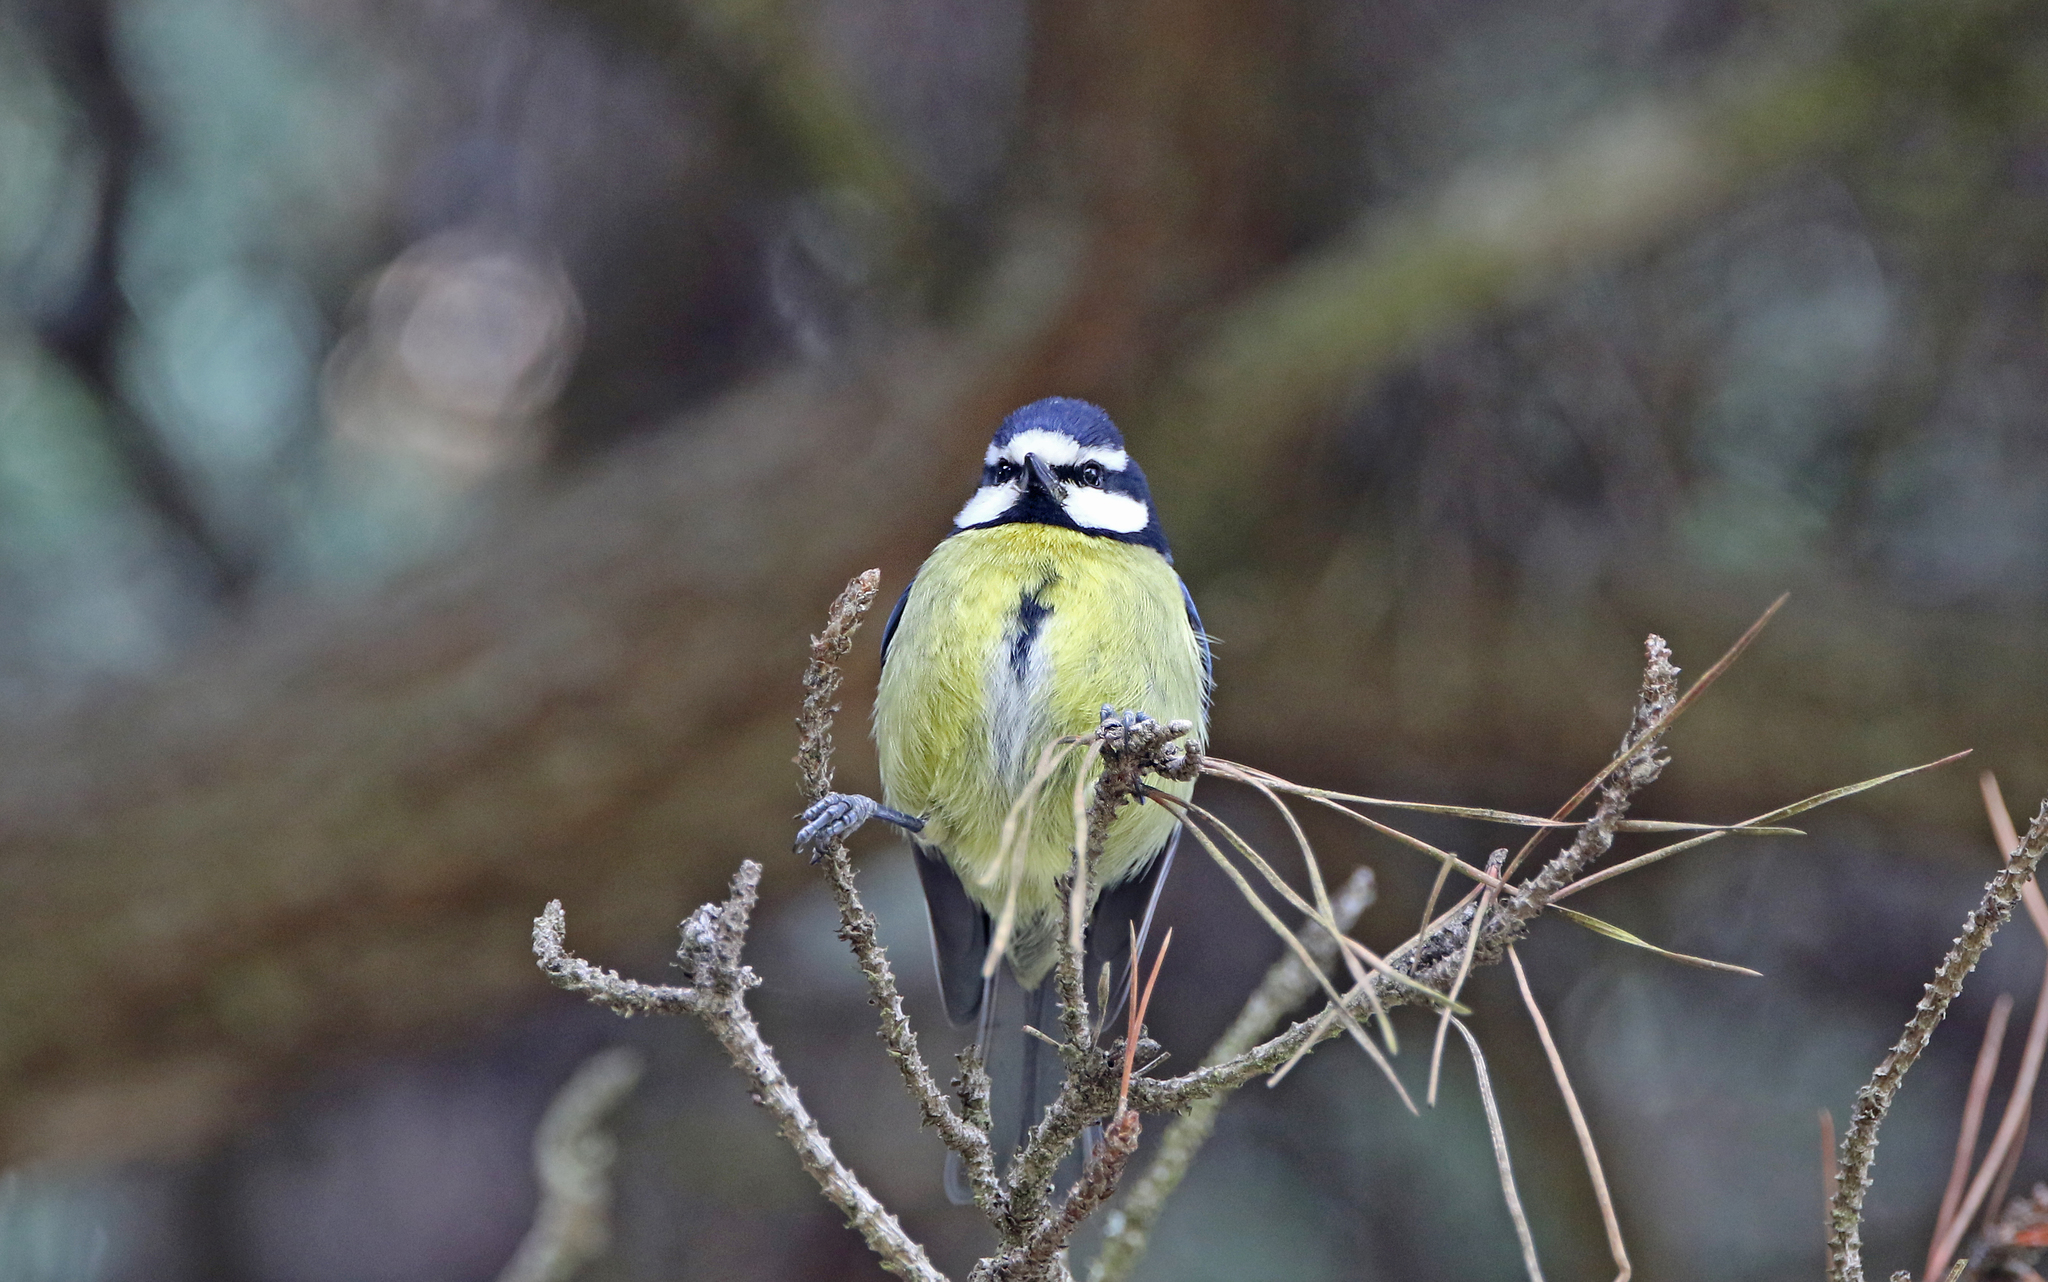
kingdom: Animalia
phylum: Chordata
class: Aves
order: Passeriformes
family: Paridae
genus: Cyanistes
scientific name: Cyanistes teneriffae
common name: African blue tit
